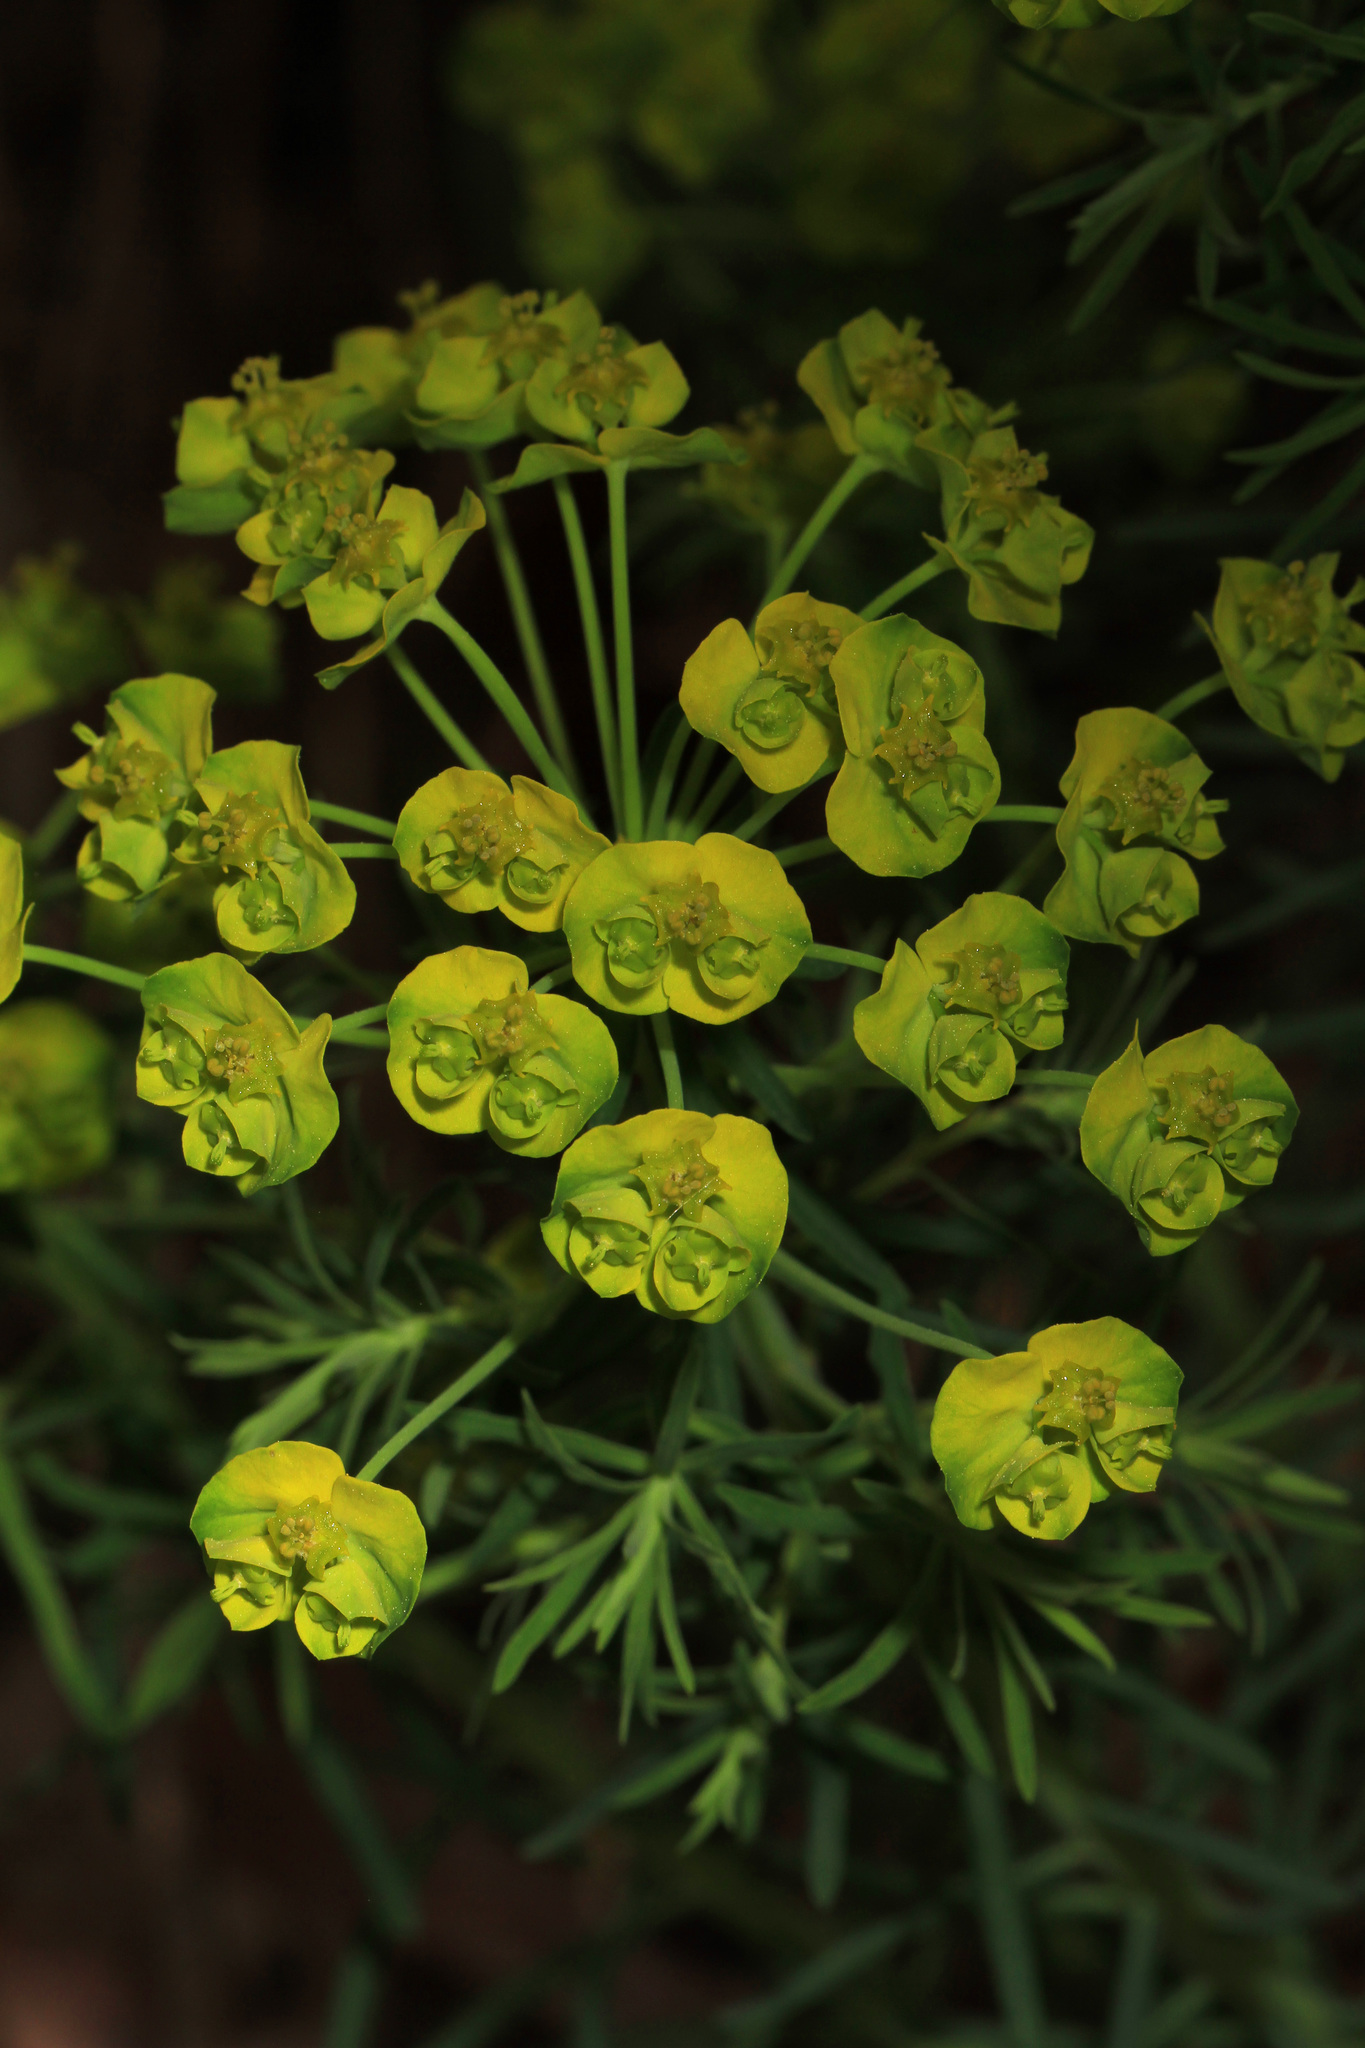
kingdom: Plantae
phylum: Tracheophyta
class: Magnoliopsida
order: Malpighiales
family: Euphorbiaceae
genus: Euphorbia
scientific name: Euphorbia cyparissias
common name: Cypress spurge
